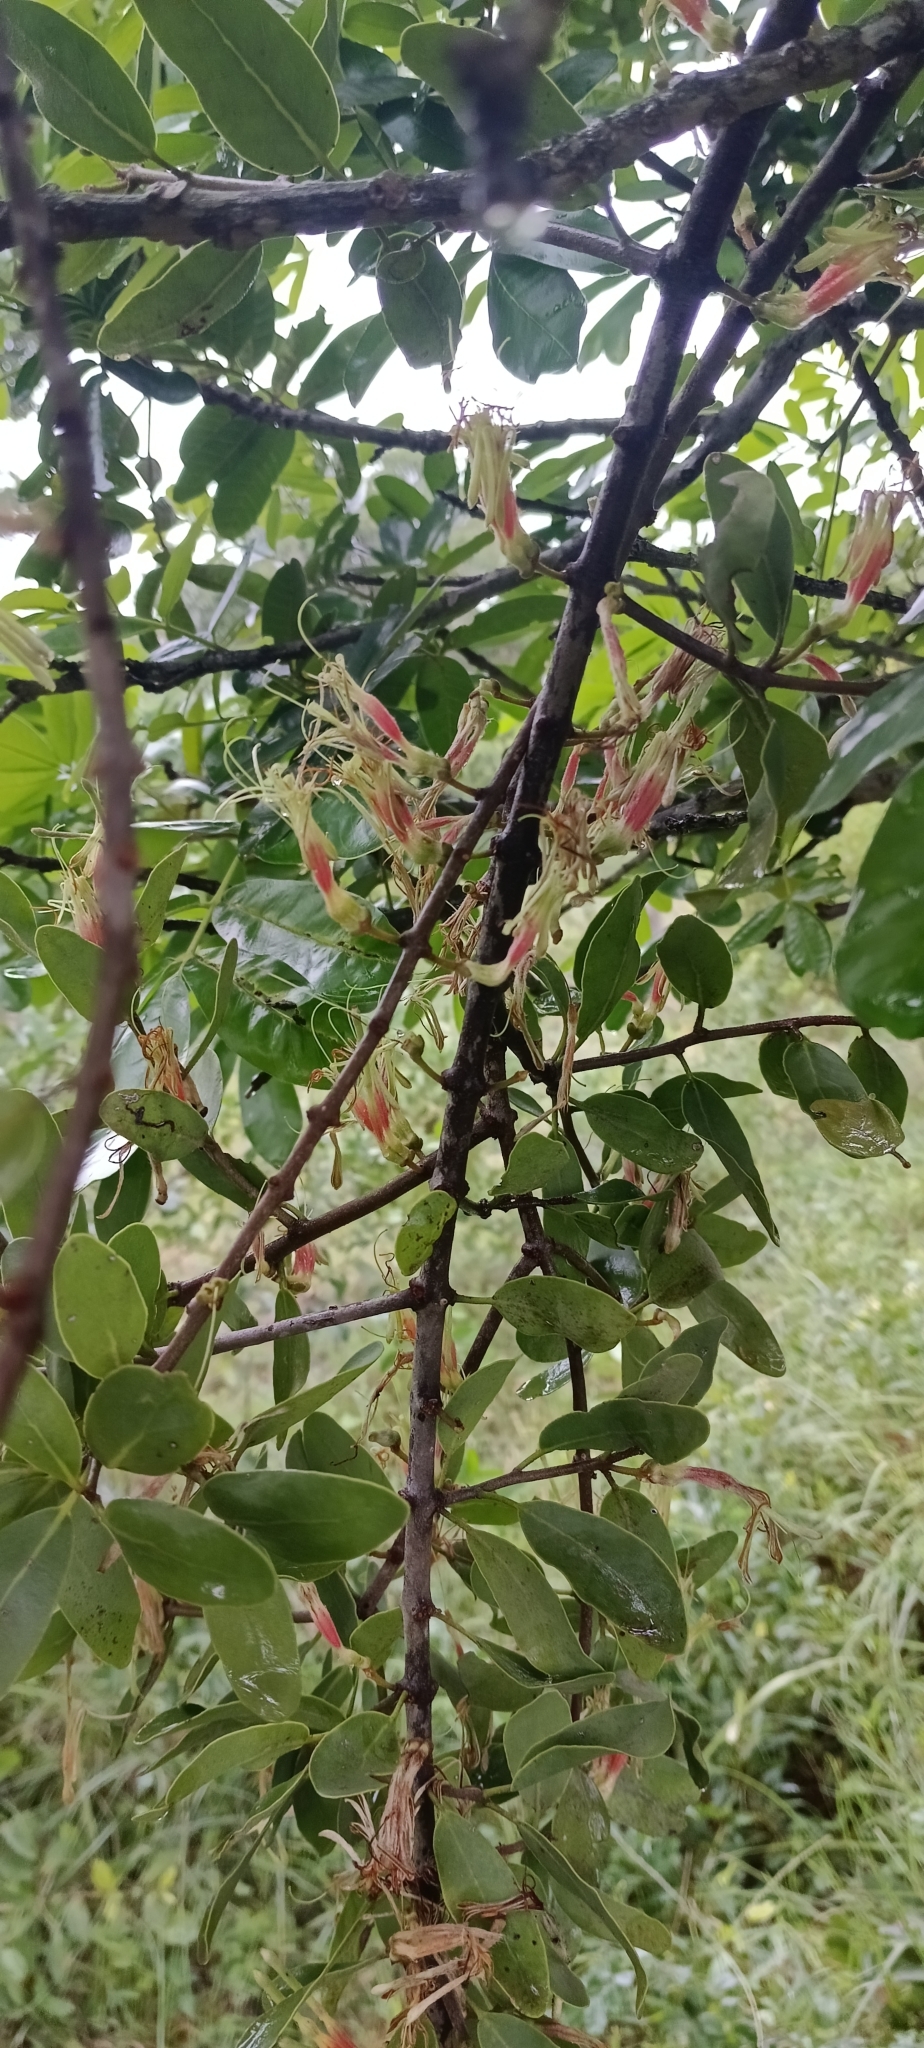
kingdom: Plantae
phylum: Tracheophyta
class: Magnoliopsida
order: Santalales
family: Loranthaceae
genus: Erianthemum
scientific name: Erianthemum dregei
